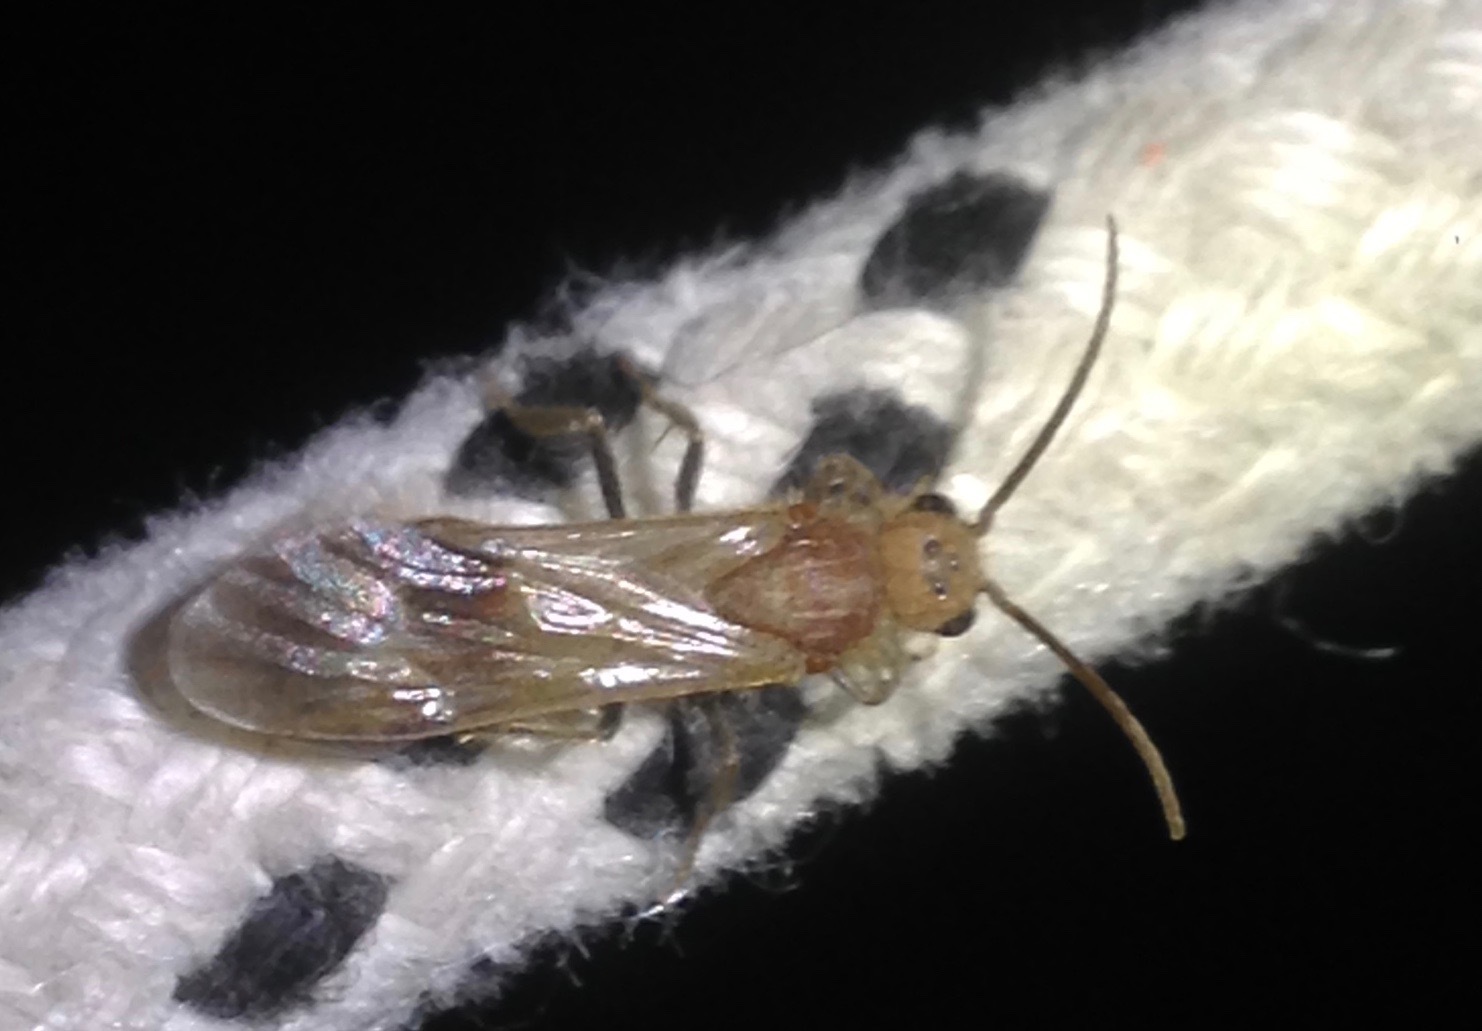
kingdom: Animalia
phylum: Arthropoda
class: Insecta
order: Hymenoptera
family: Mutillidae
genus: Sphaeropthalma
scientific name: Sphaeropthalma unicolor
